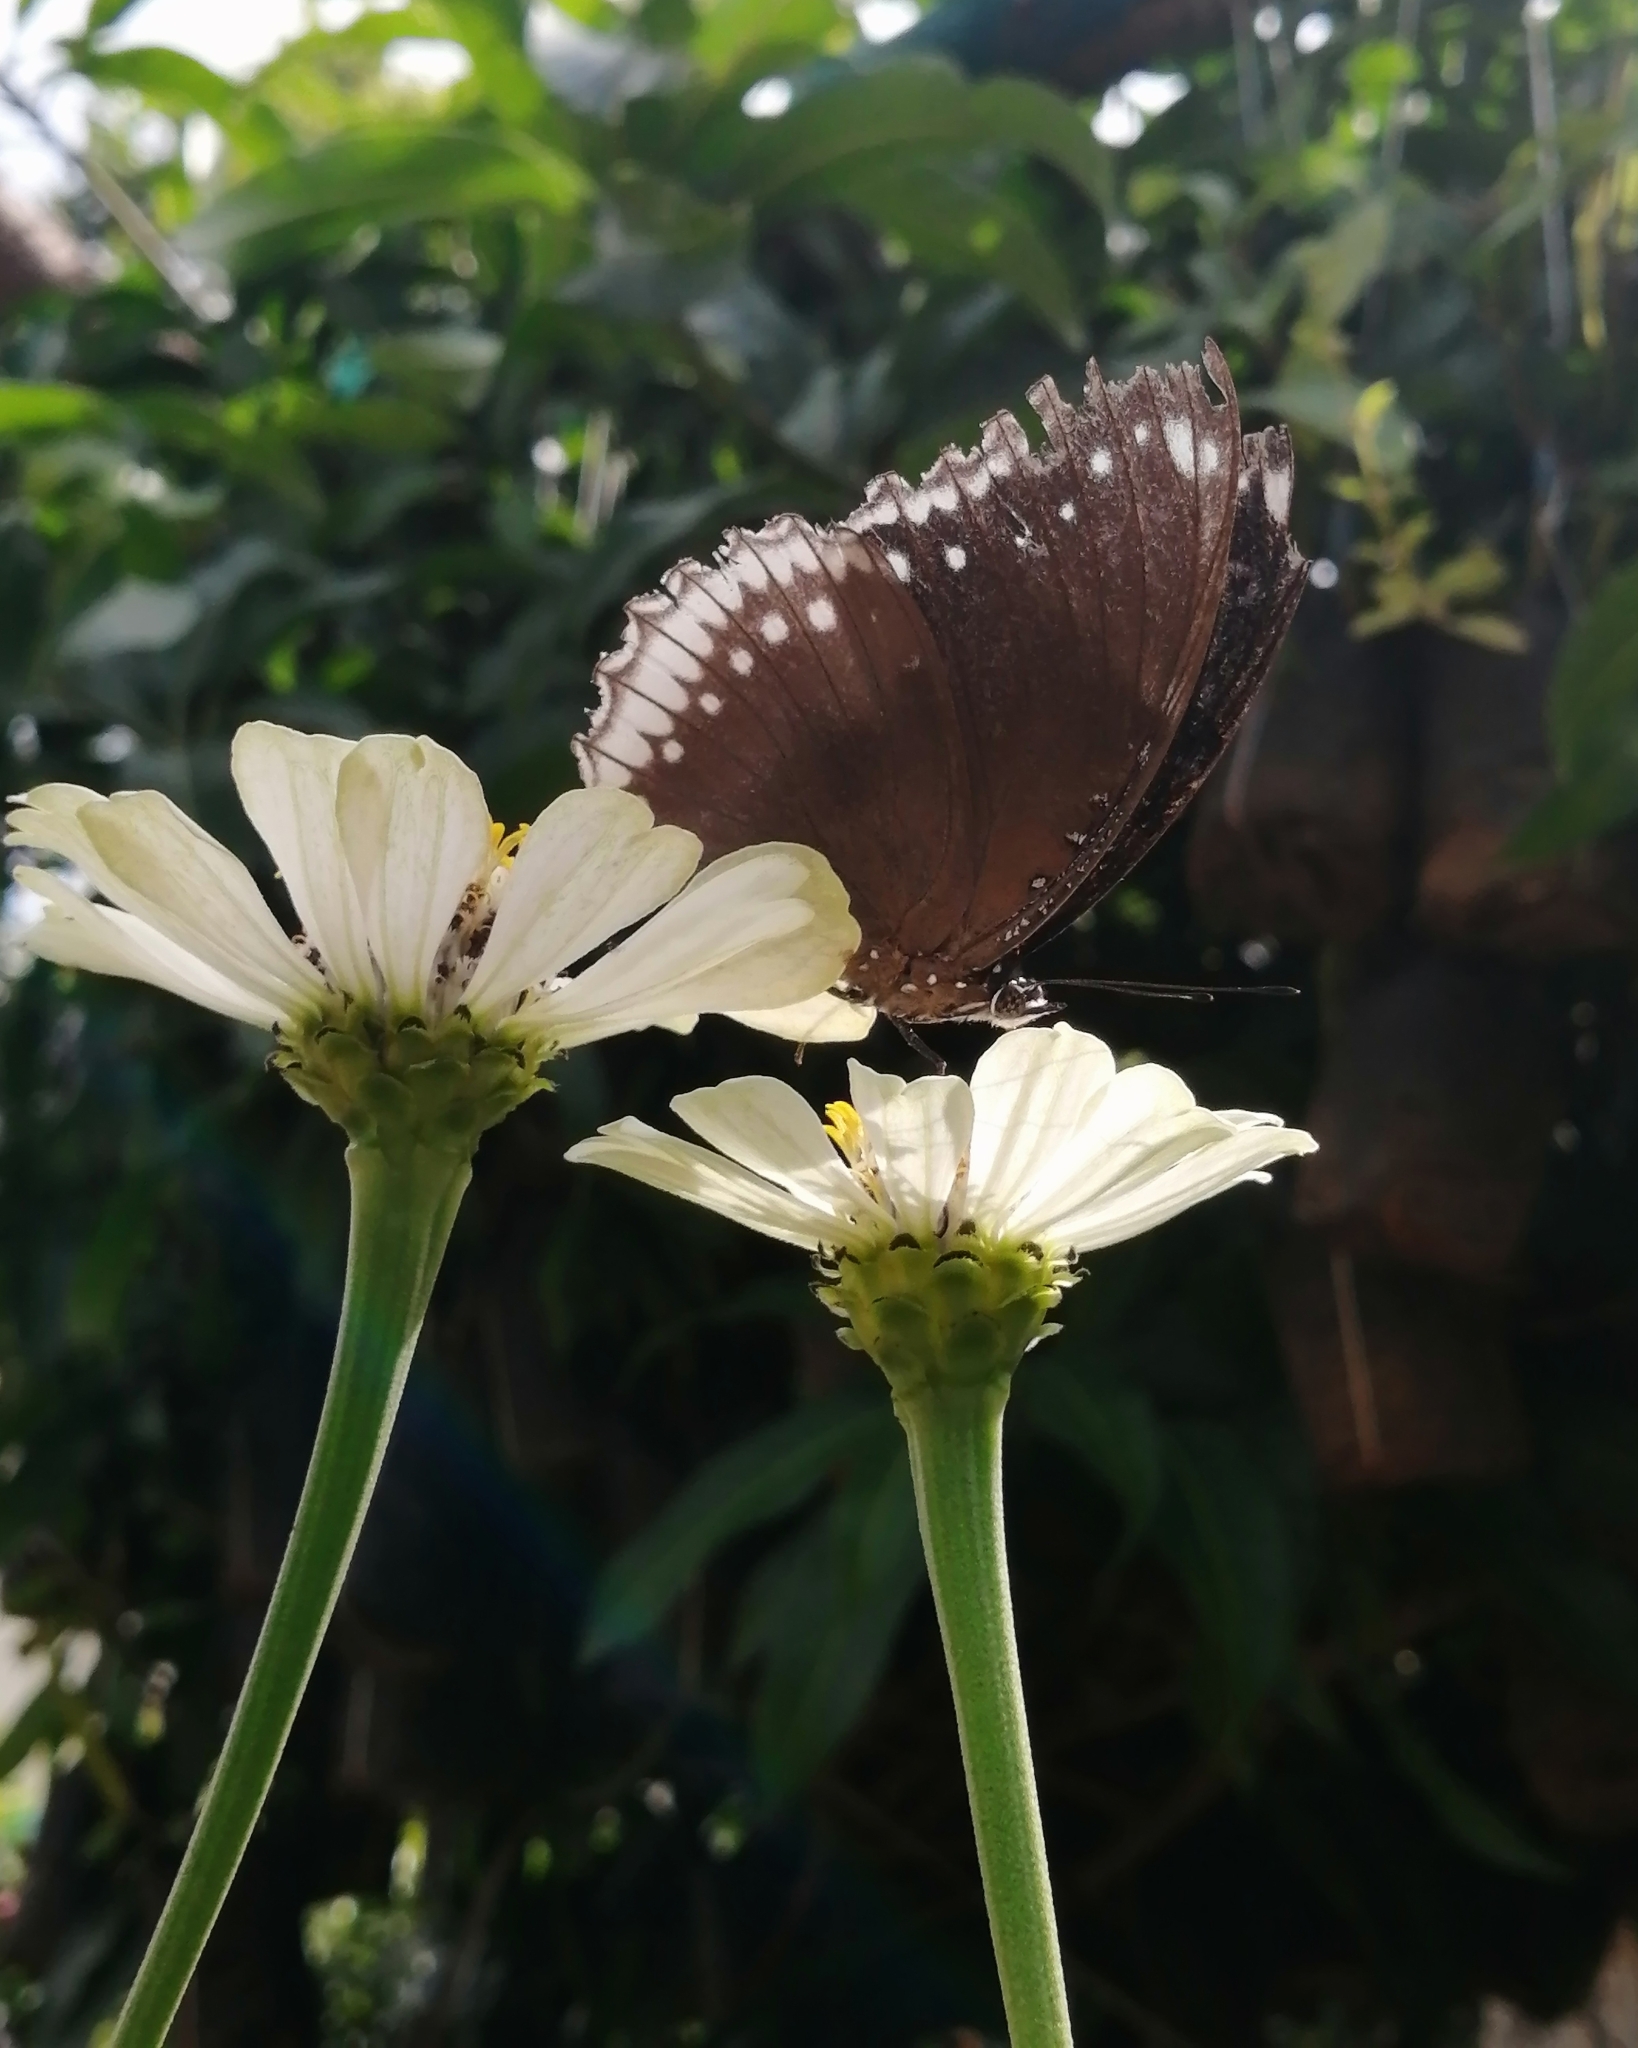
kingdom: Animalia
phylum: Arthropoda
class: Insecta
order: Lepidoptera
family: Nymphalidae
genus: Hypolimnas
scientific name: Hypolimnas bolina
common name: Great eggfly
